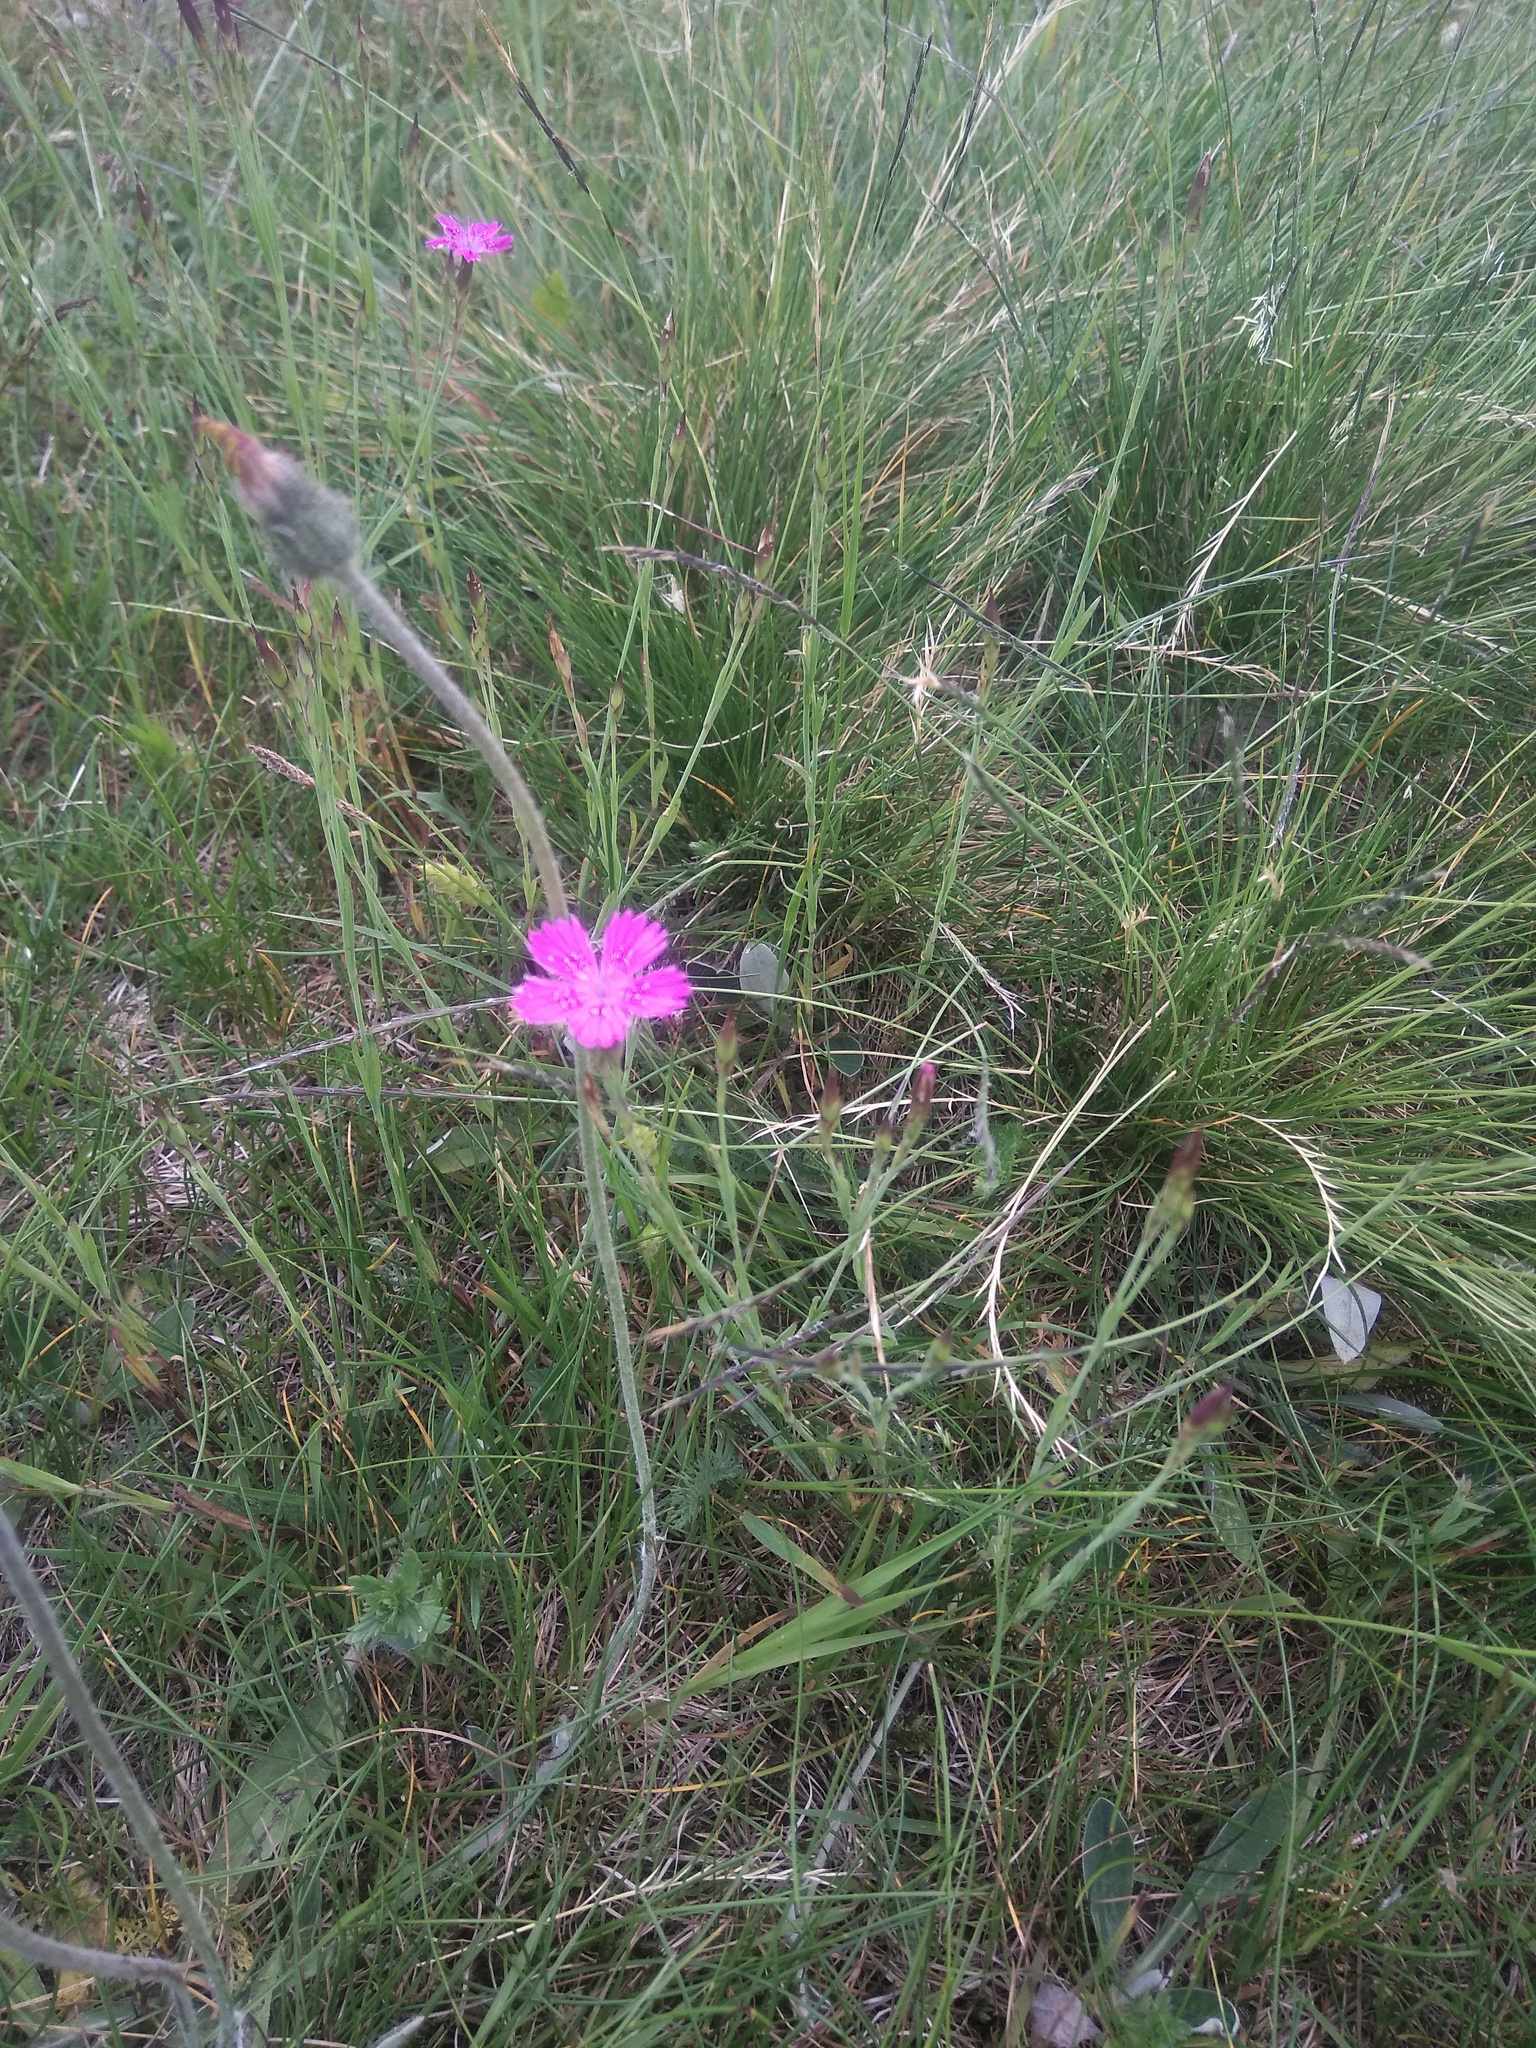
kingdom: Plantae
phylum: Tracheophyta
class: Magnoliopsida
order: Caryophyllales
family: Caryophyllaceae
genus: Dianthus
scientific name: Dianthus deltoides
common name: Maiden pink
